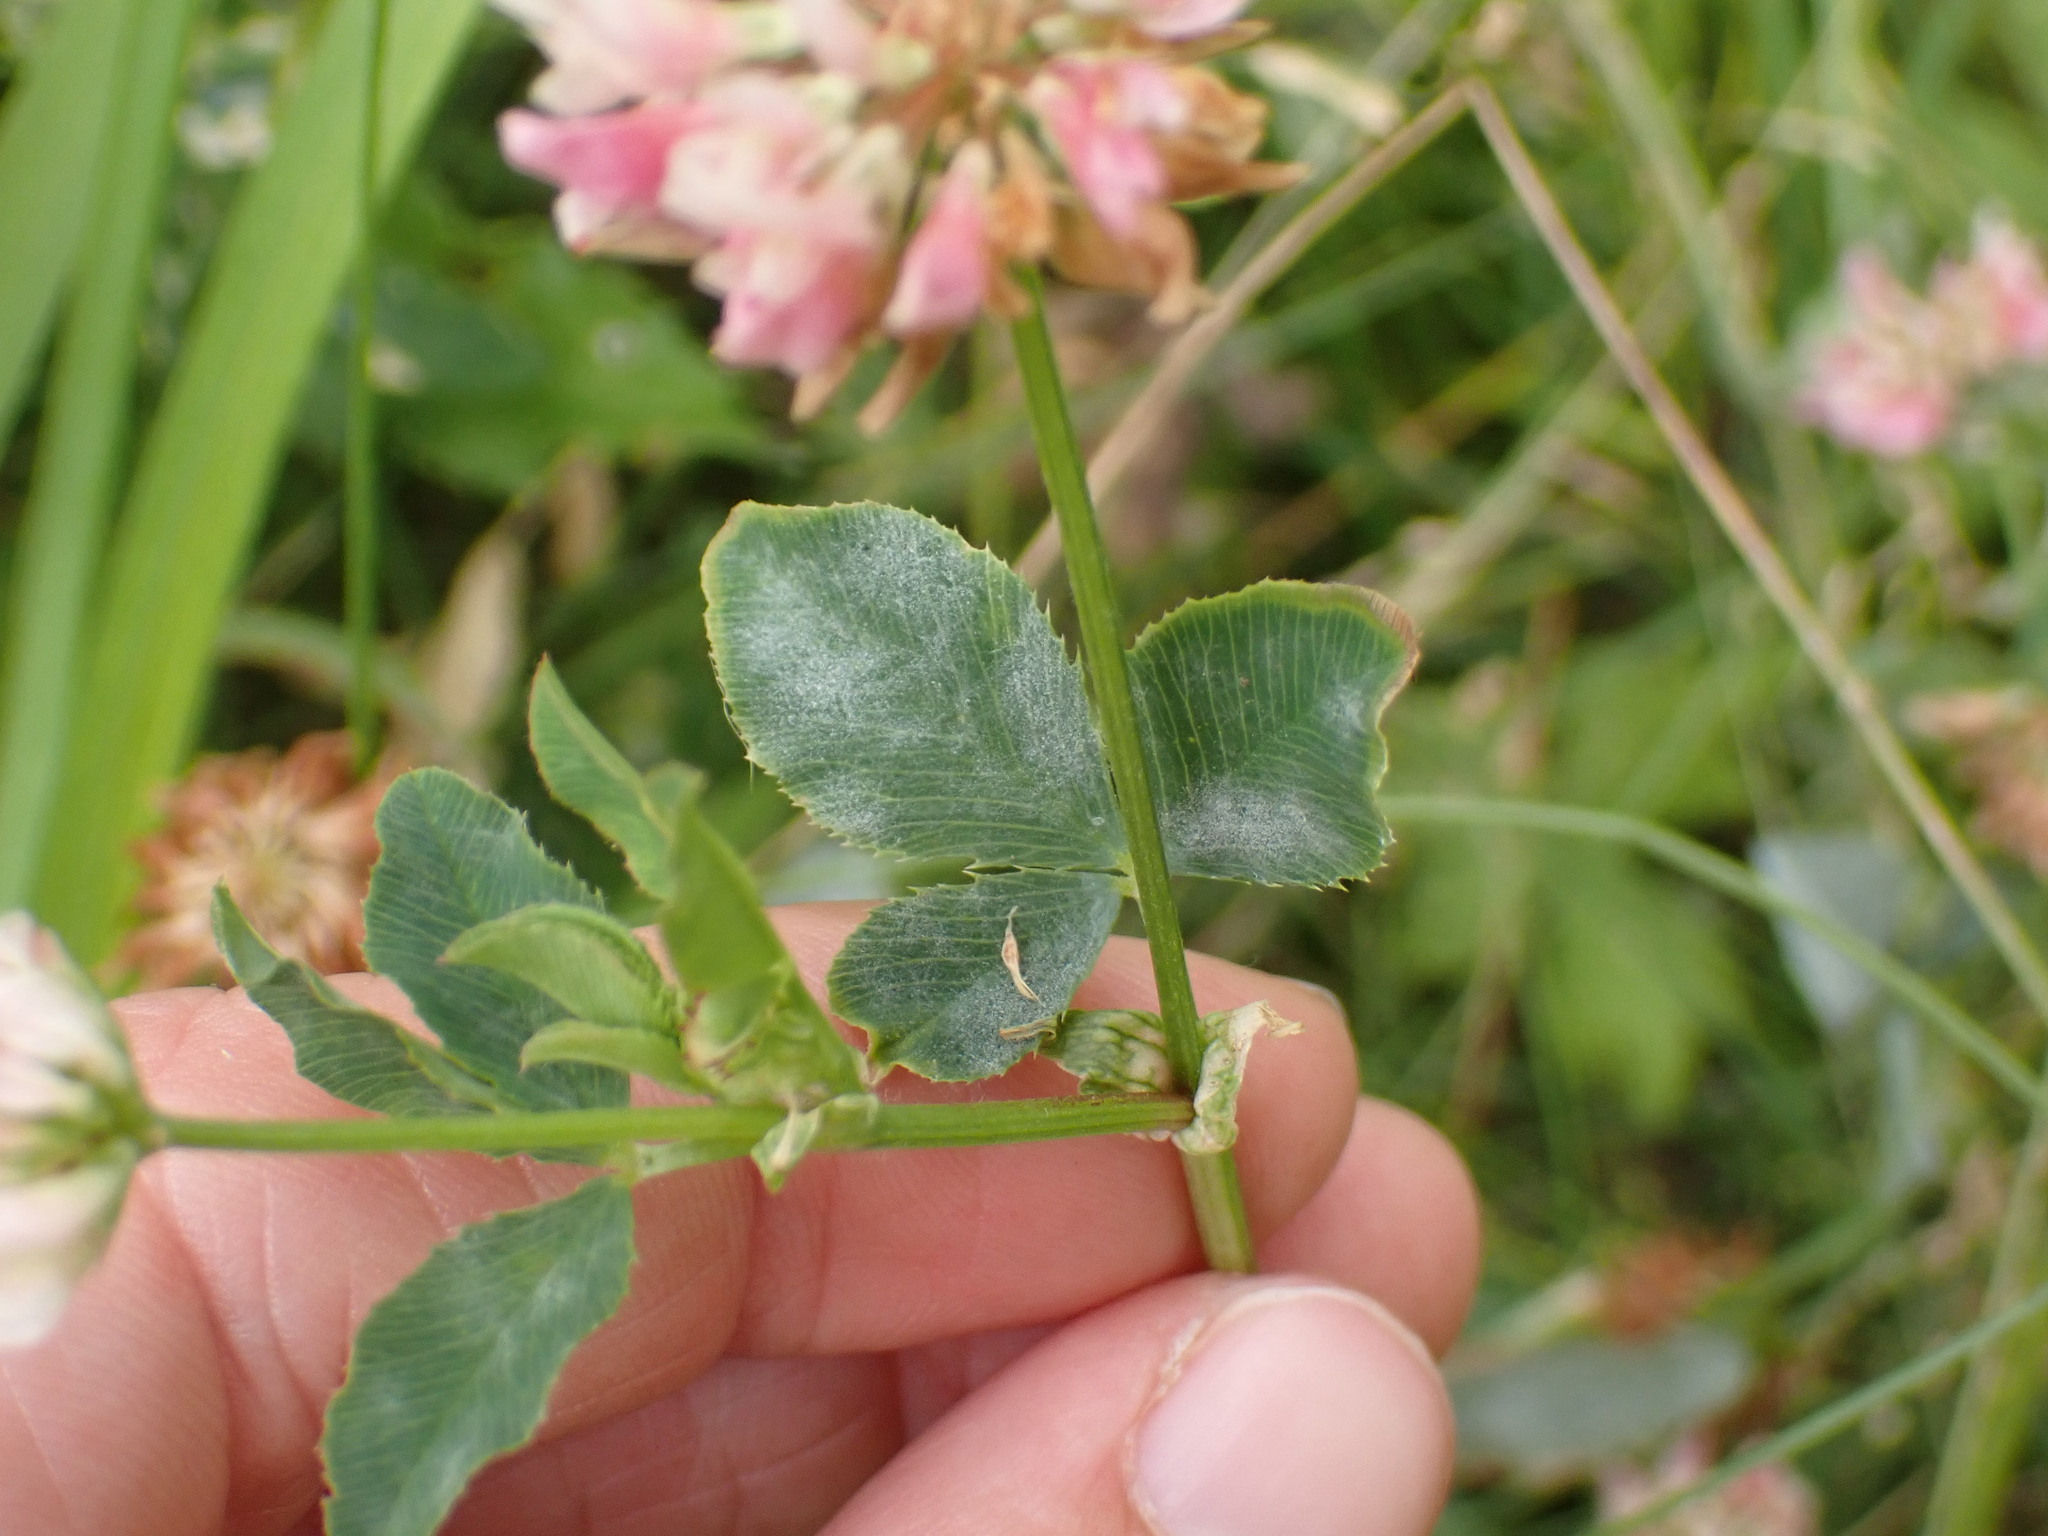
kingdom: Plantae
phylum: Tracheophyta
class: Magnoliopsida
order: Fabales
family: Fabaceae
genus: Trifolium
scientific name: Trifolium hybridum
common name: Alsike clover
